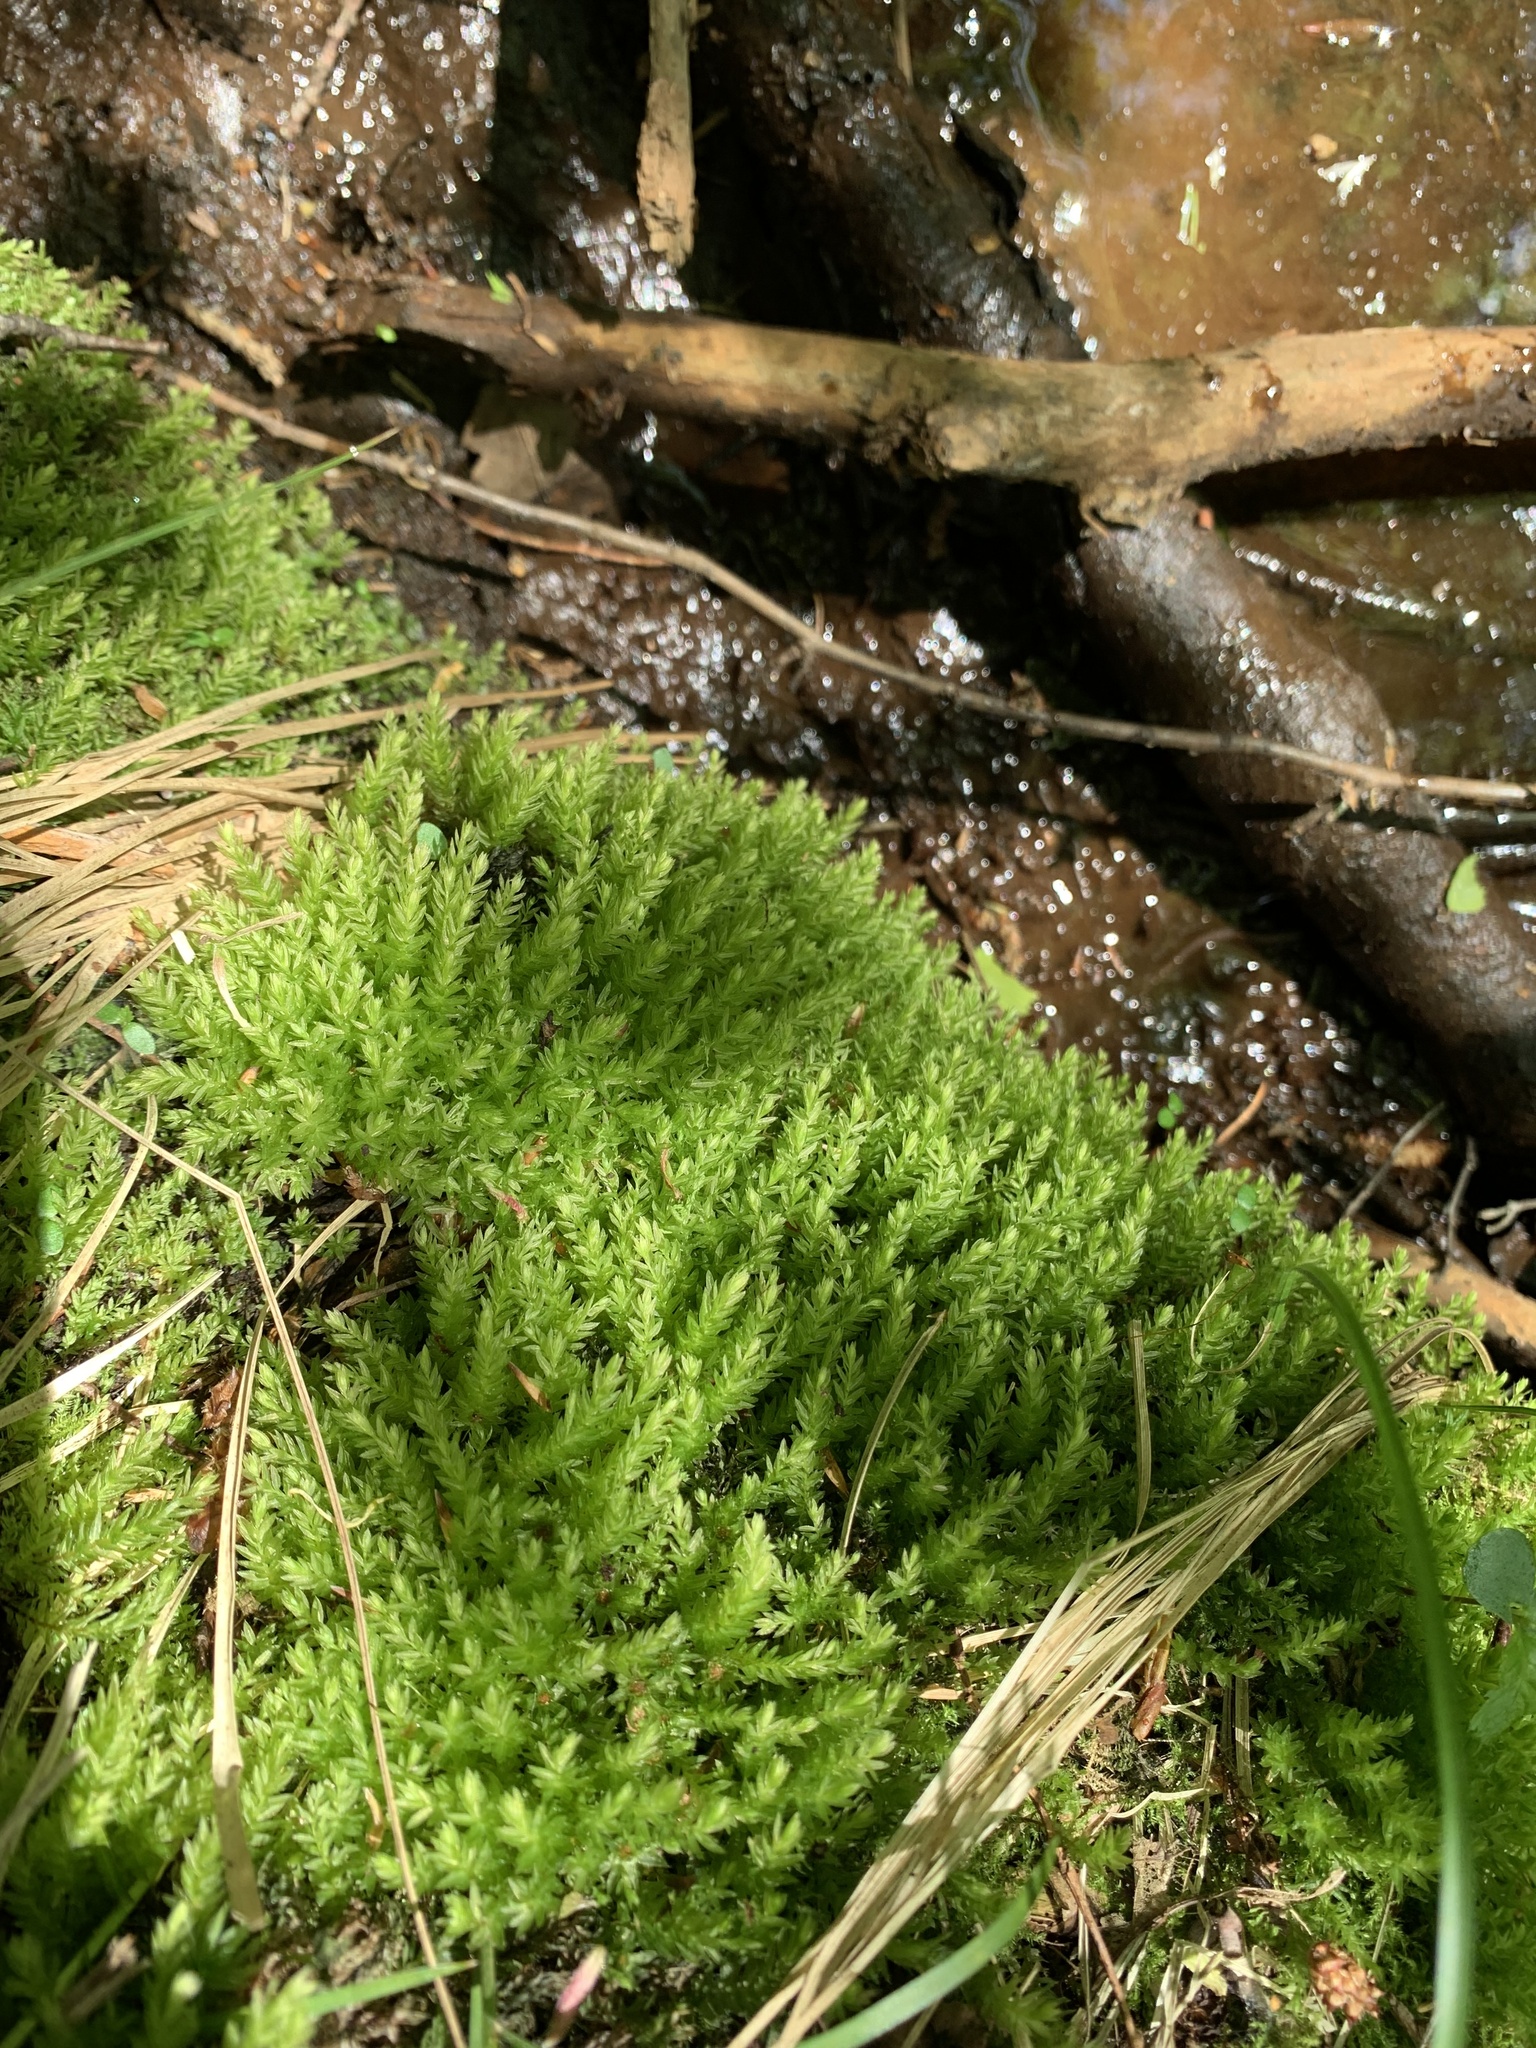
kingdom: Plantae
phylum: Bryophyta
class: Bryopsida
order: Bryales
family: Mniaceae
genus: Mnium
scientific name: Mnium hornum
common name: Swan's-neck leafy moss
